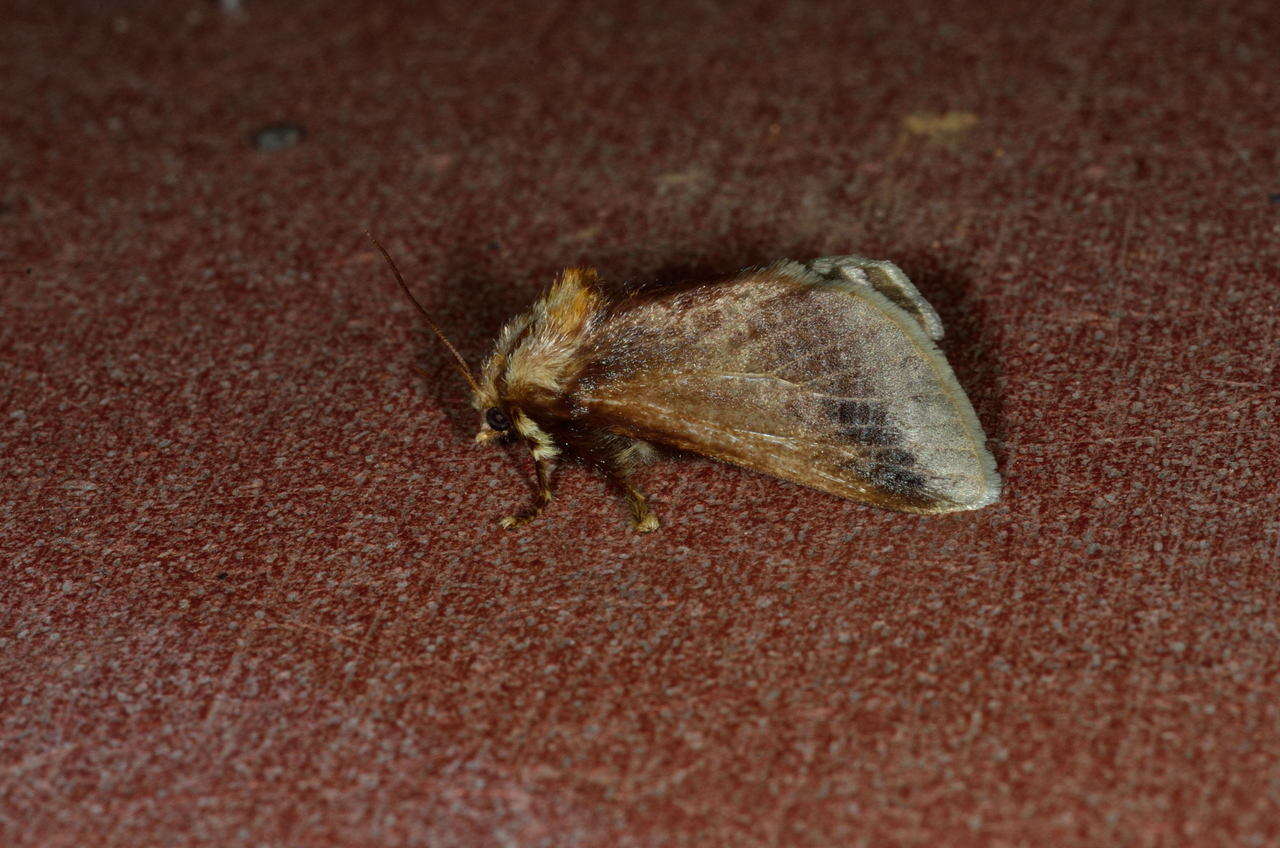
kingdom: Animalia
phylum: Arthropoda
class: Insecta
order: Lepidoptera
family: Limacodidae
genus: Doratifera
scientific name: Doratifera oxleyi
